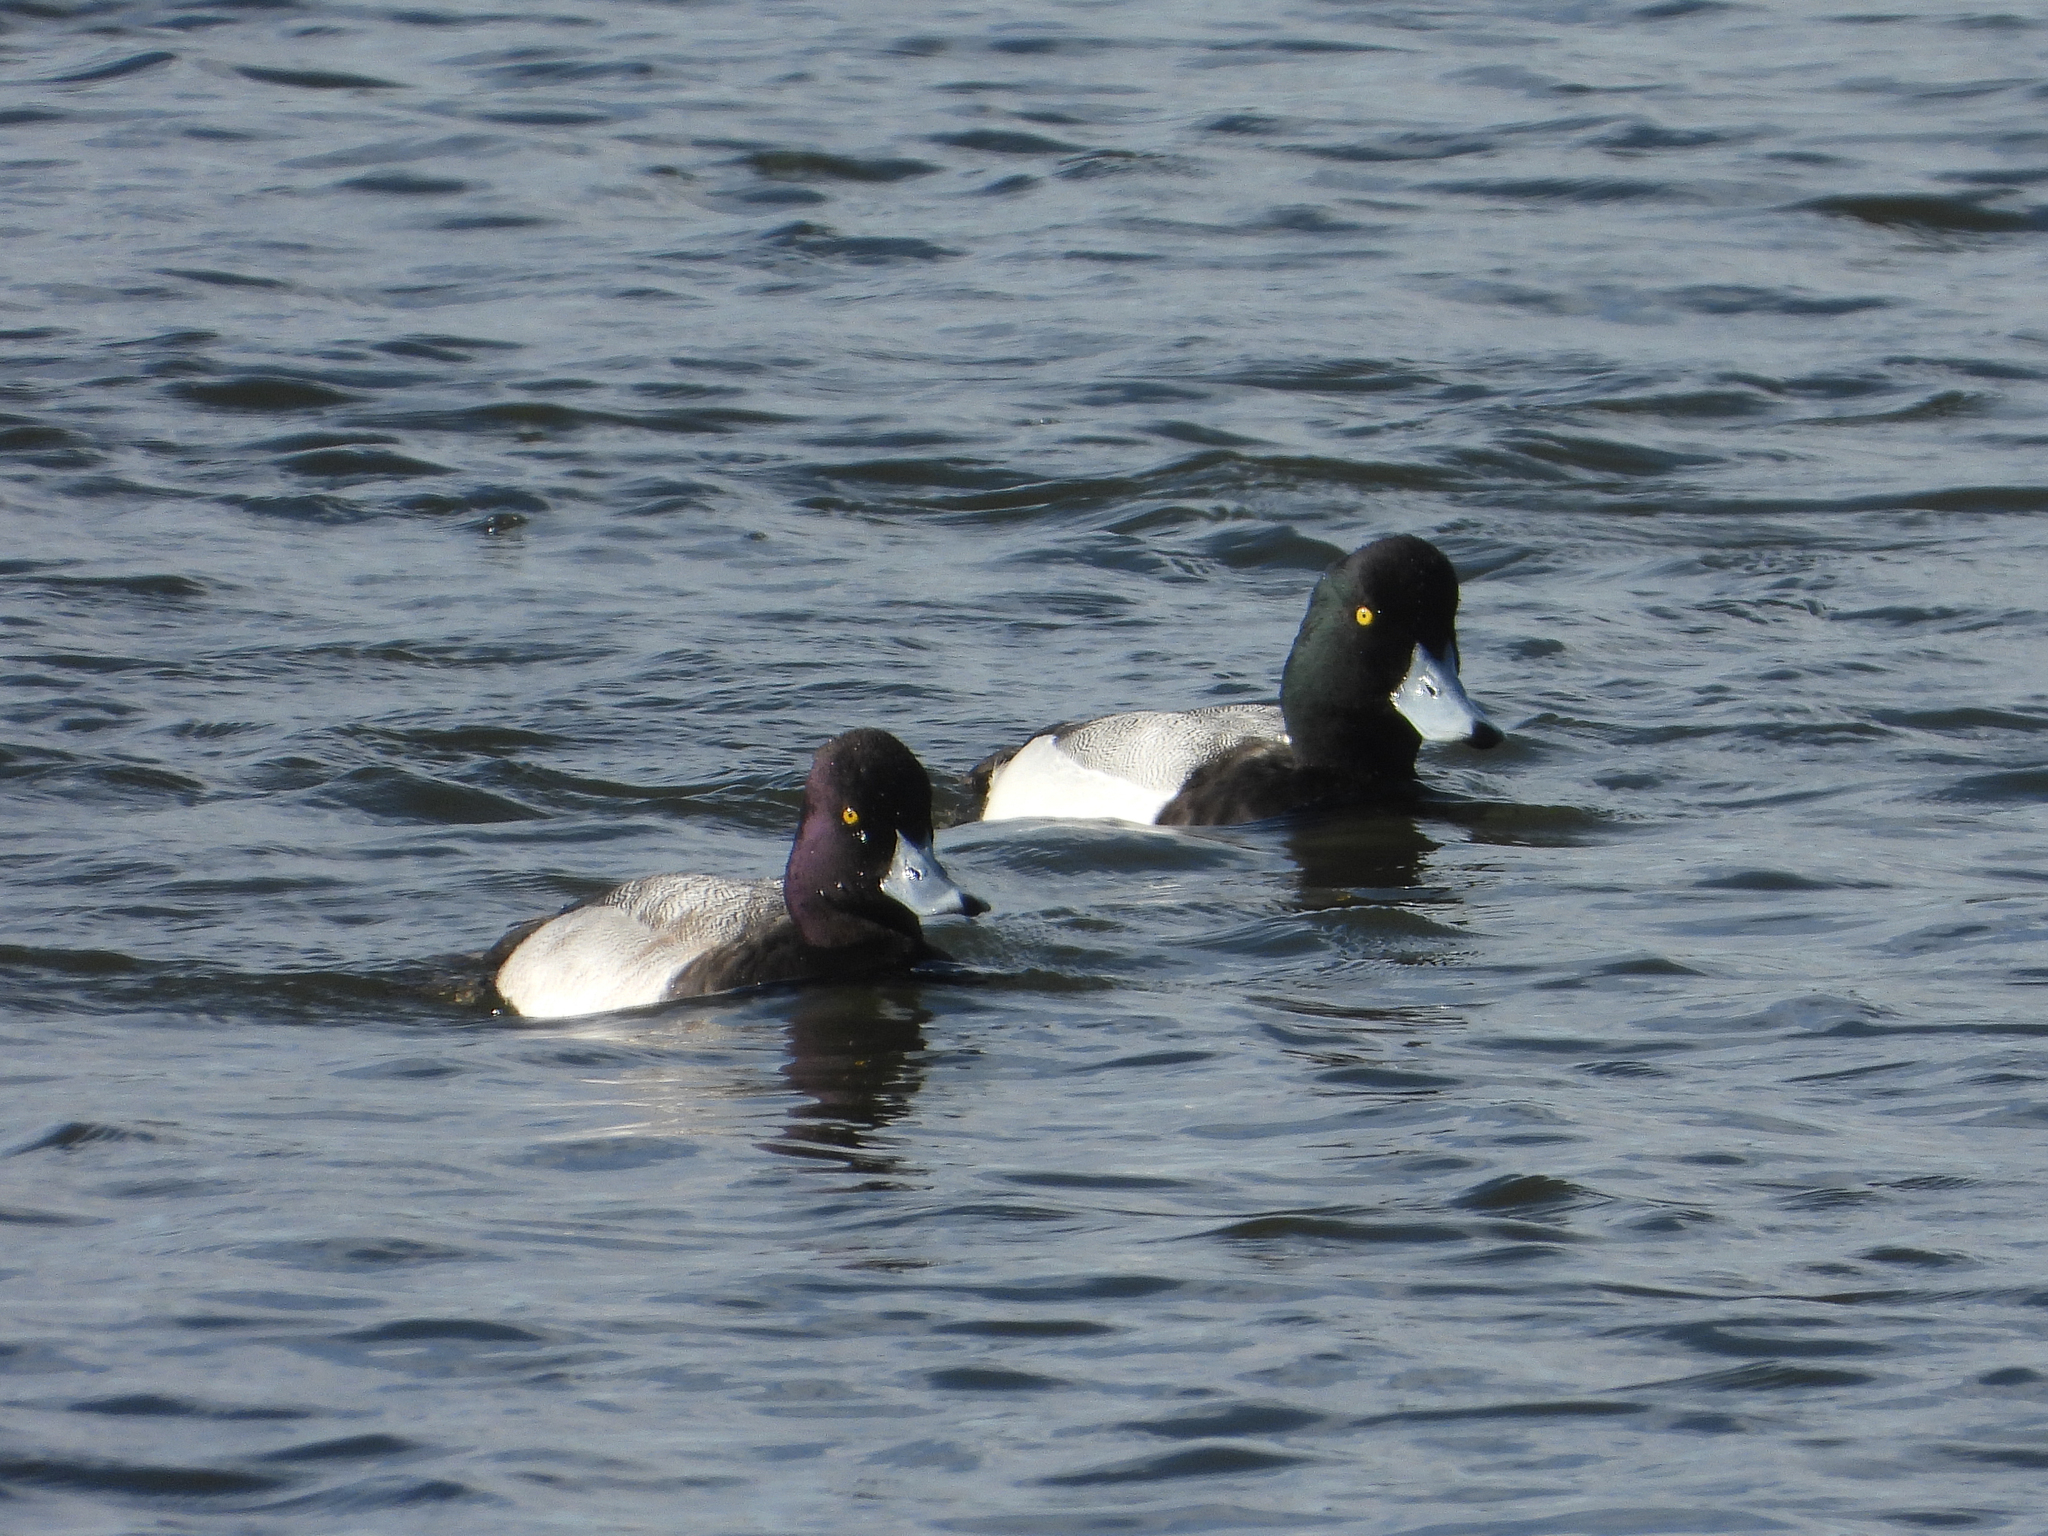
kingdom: Animalia
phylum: Chordata
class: Aves
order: Anseriformes
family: Anatidae
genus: Aythya
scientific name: Aythya marila
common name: Greater scaup
